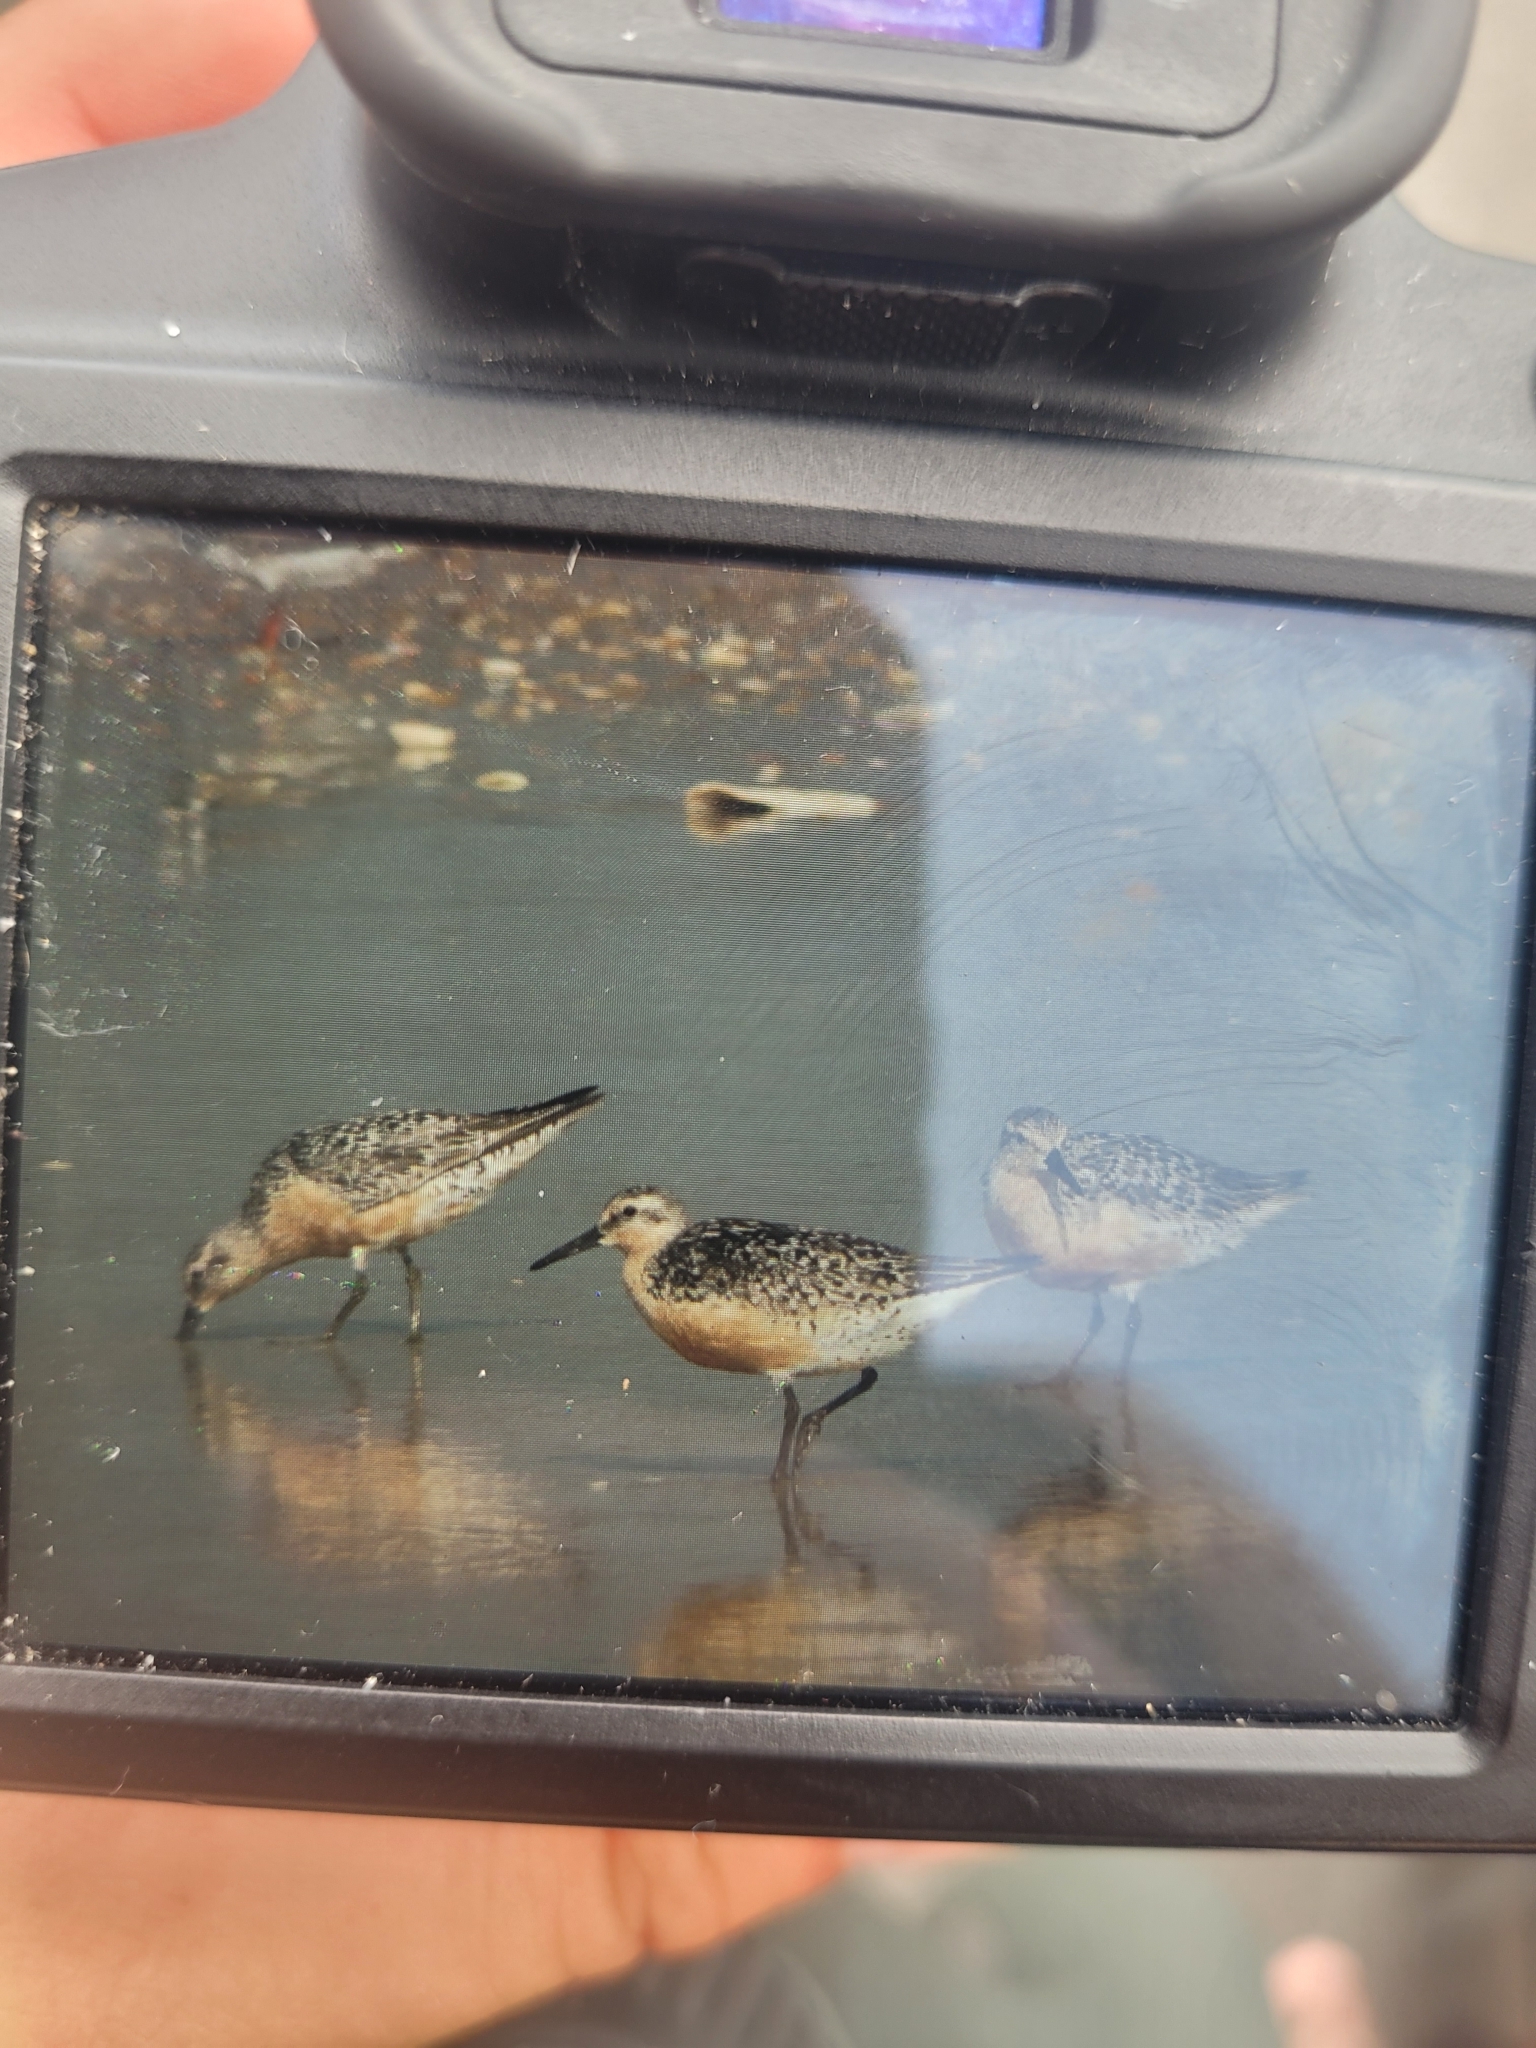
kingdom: Animalia
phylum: Chordata
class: Aves
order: Charadriiformes
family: Scolopacidae
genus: Calidris
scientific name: Calidris canutus
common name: Red knot
